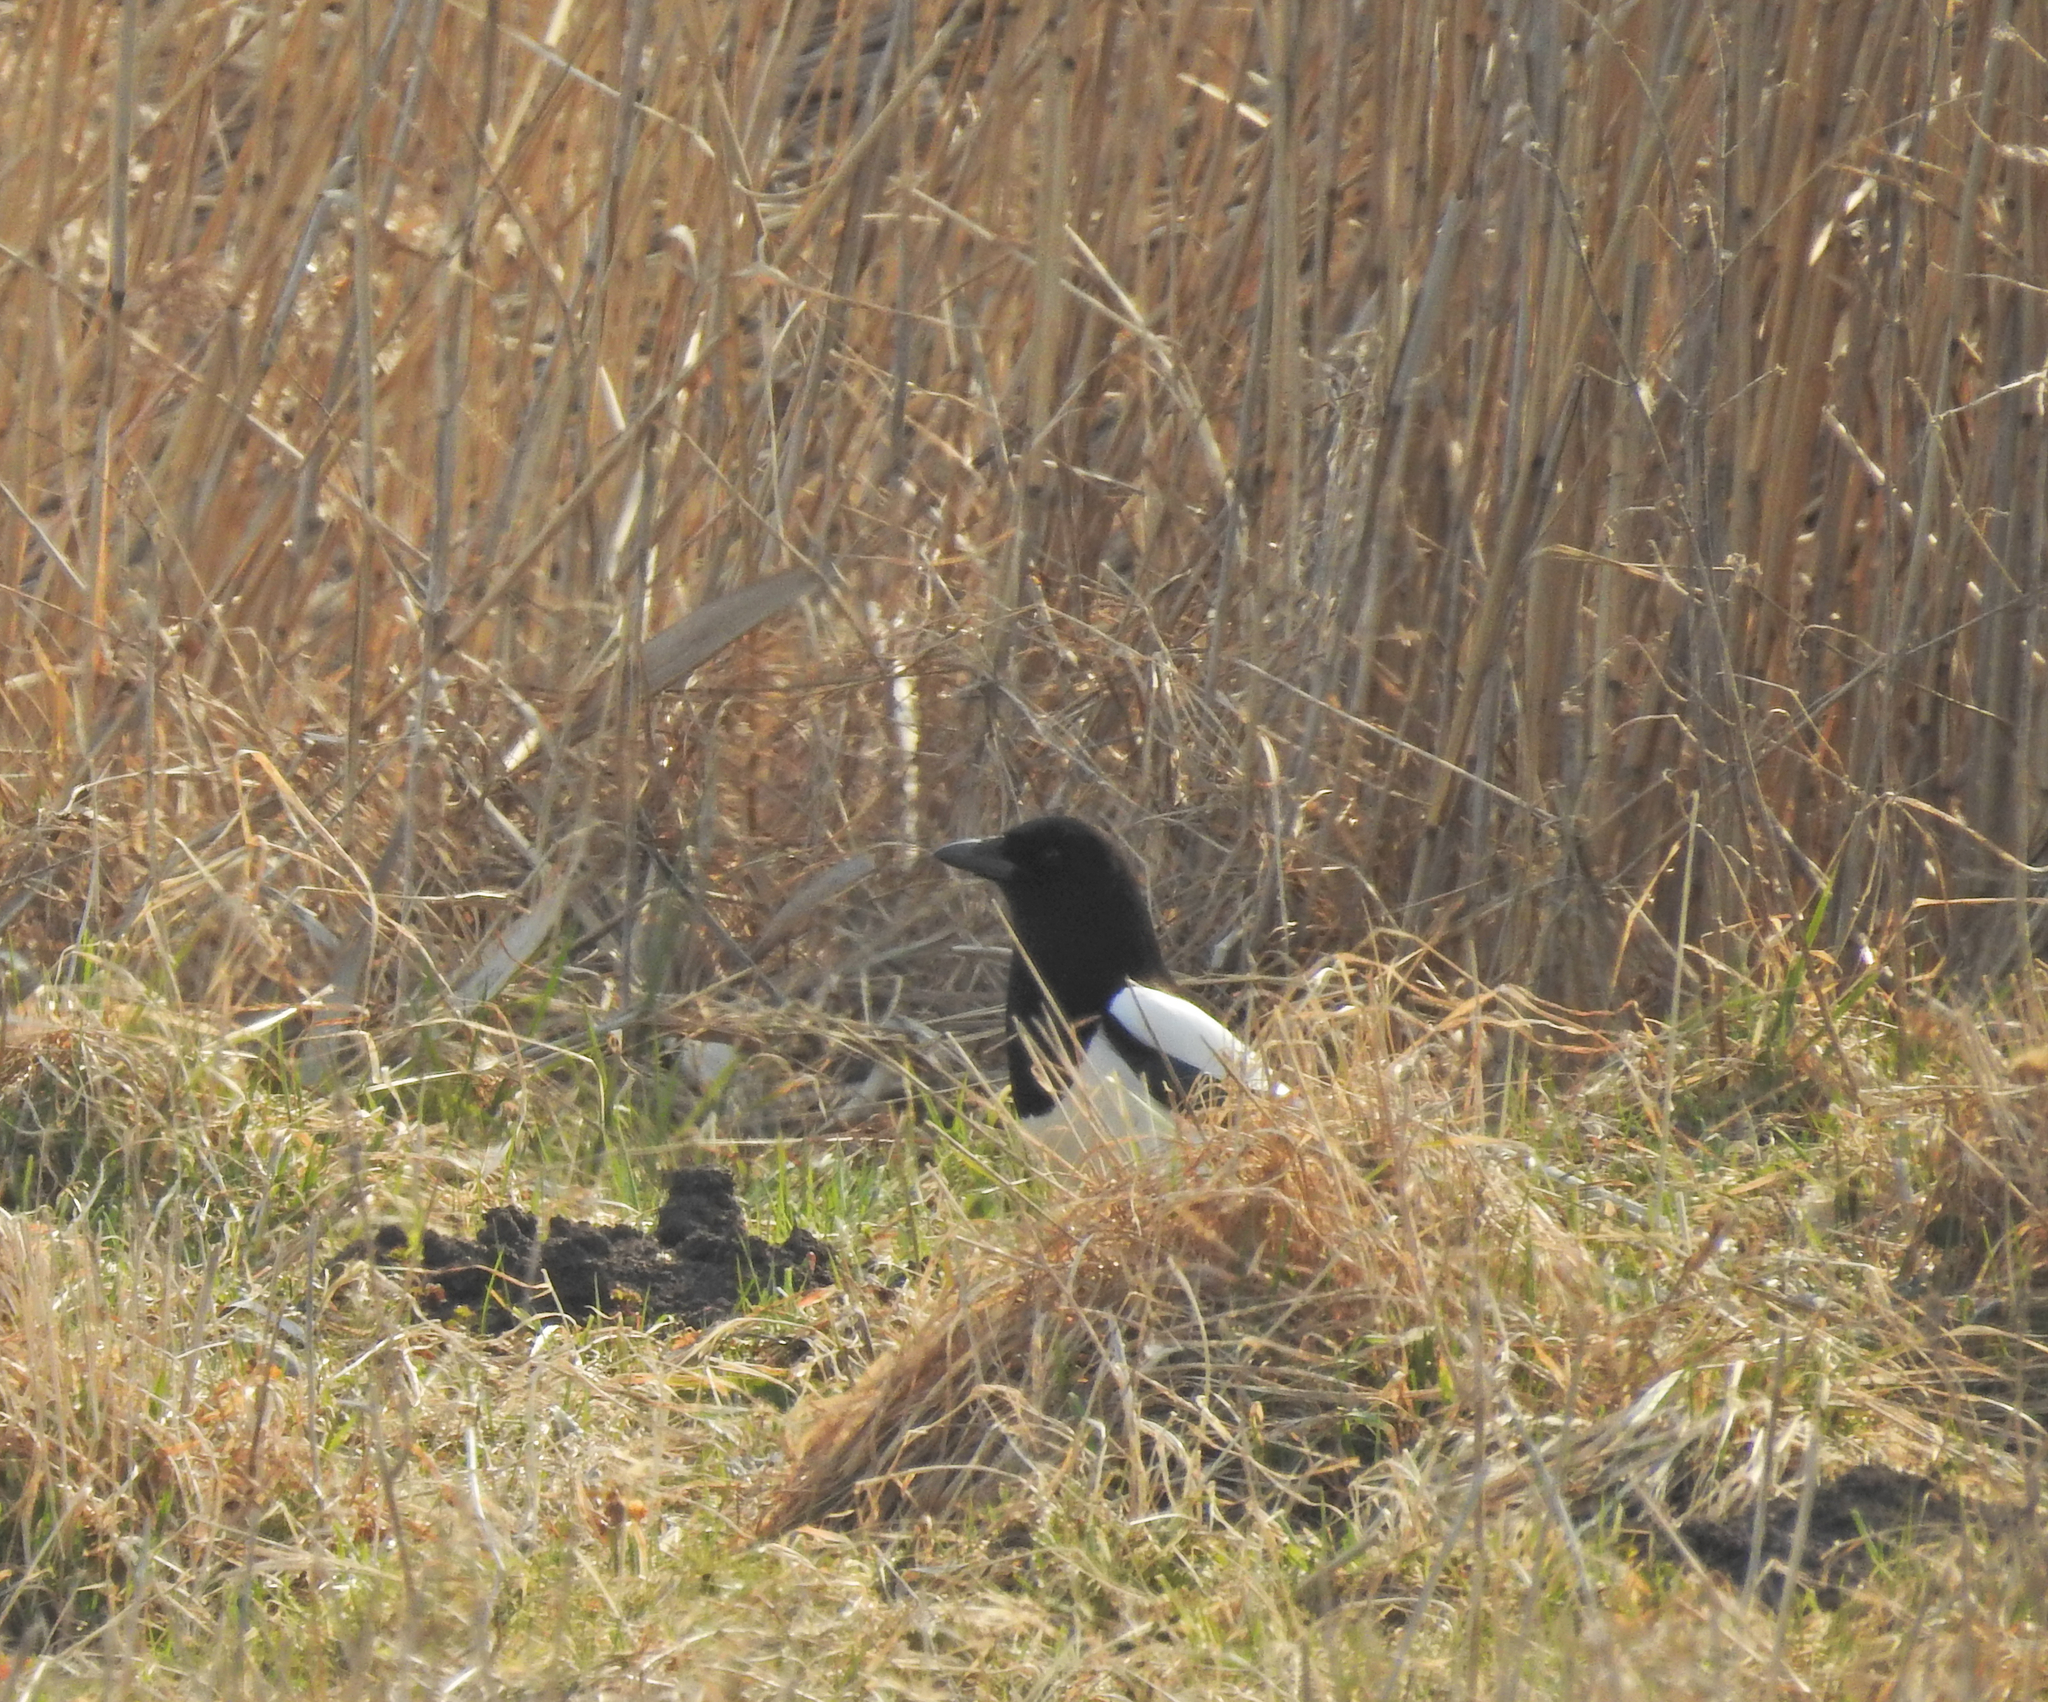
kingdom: Animalia
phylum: Chordata
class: Aves
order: Passeriformes
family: Corvidae
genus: Pica
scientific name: Pica pica
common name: Eurasian magpie
